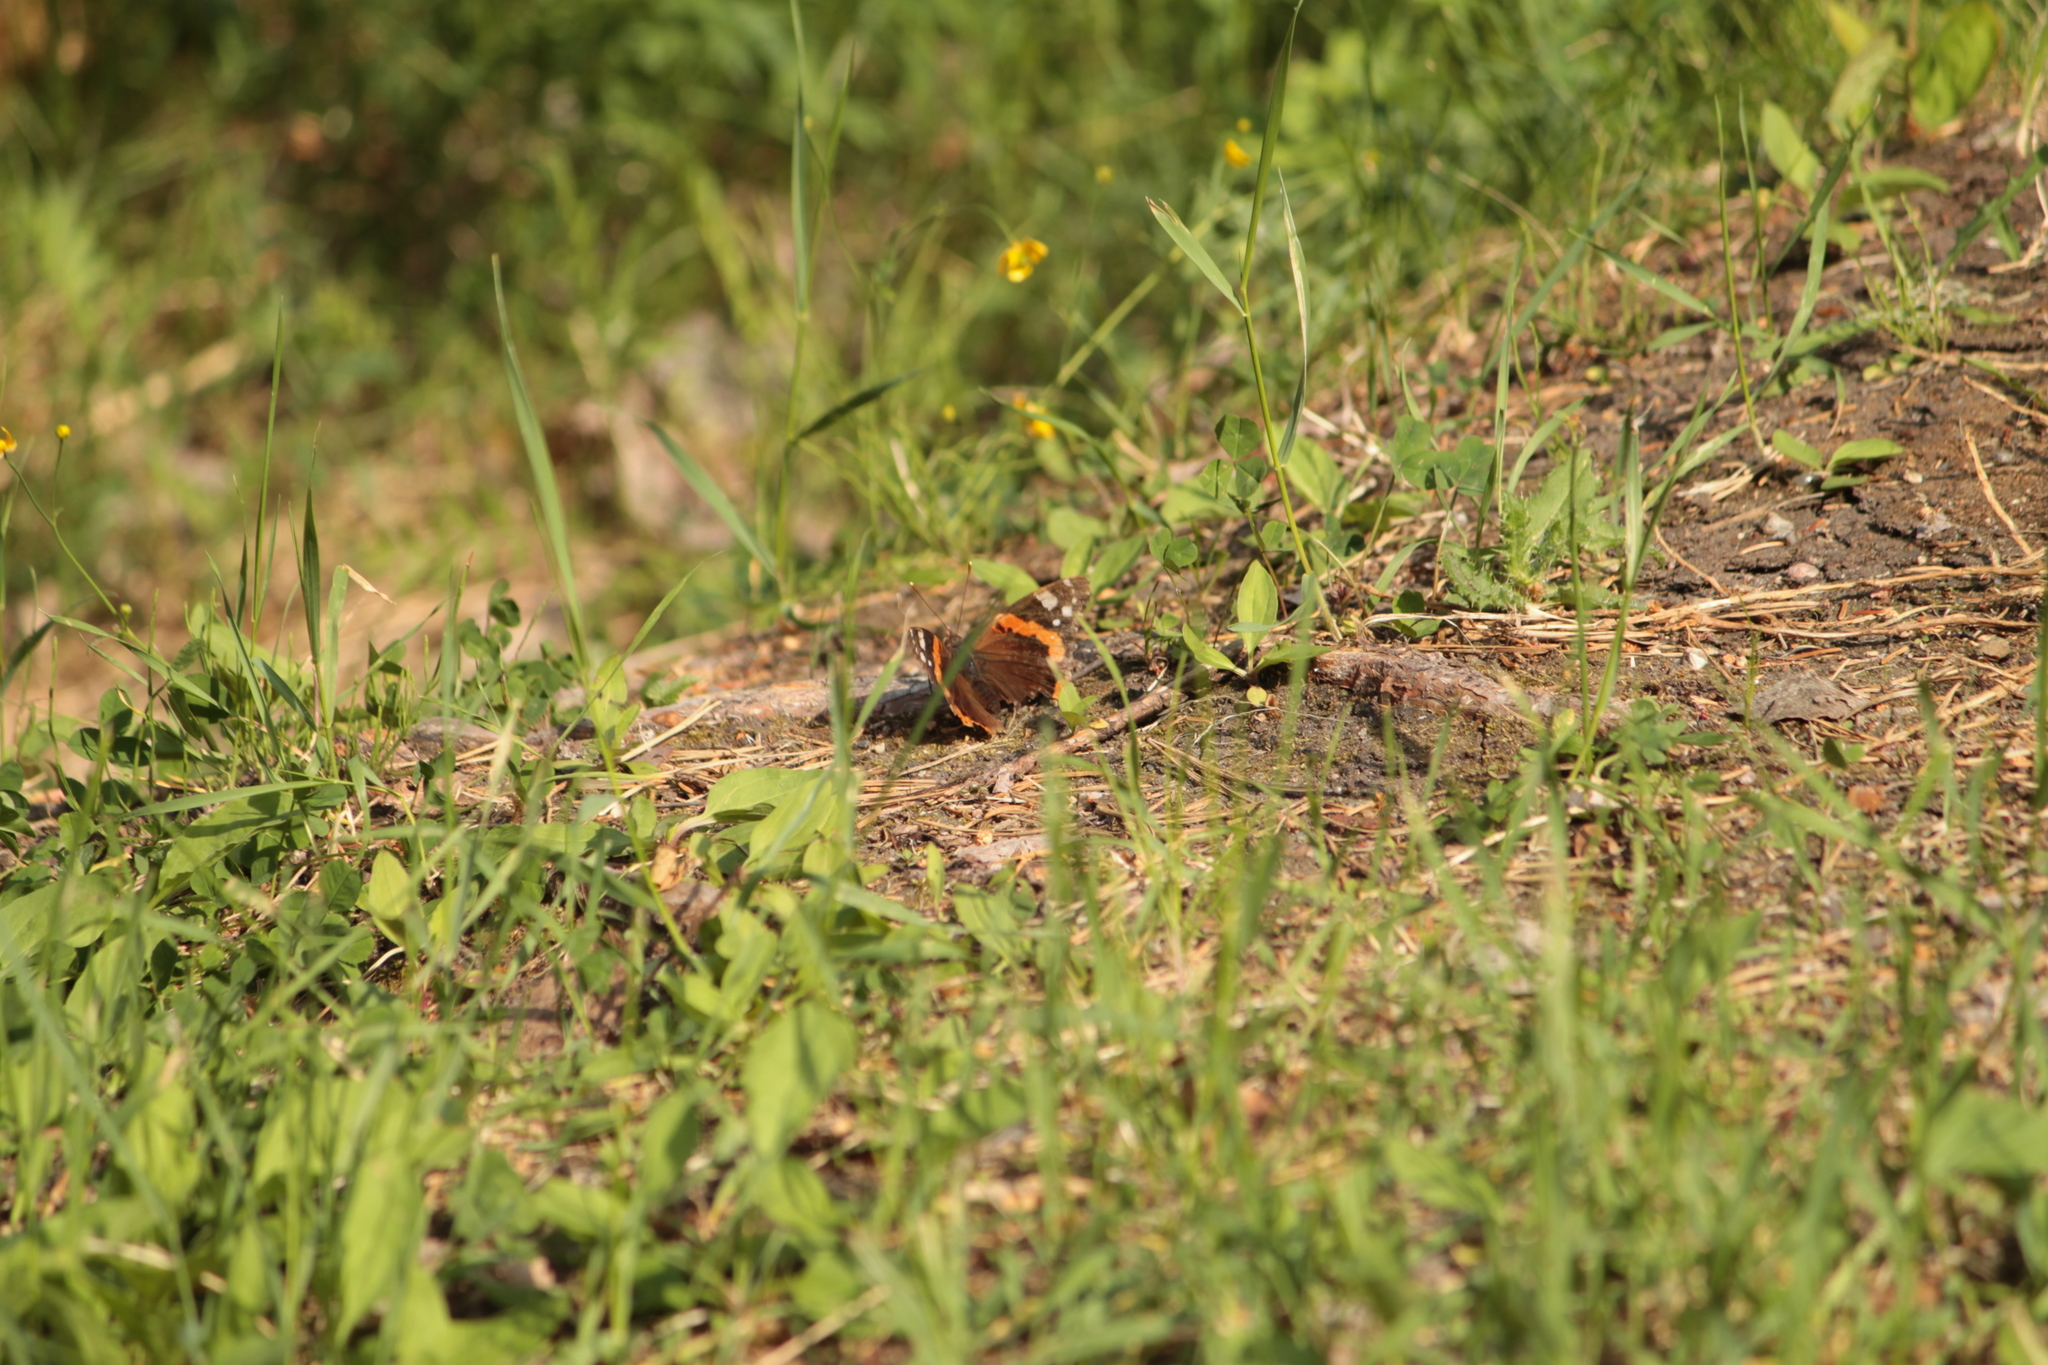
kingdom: Animalia
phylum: Arthropoda
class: Insecta
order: Lepidoptera
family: Nymphalidae
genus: Vanessa
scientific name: Vanessa atalanta
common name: Red admiral
